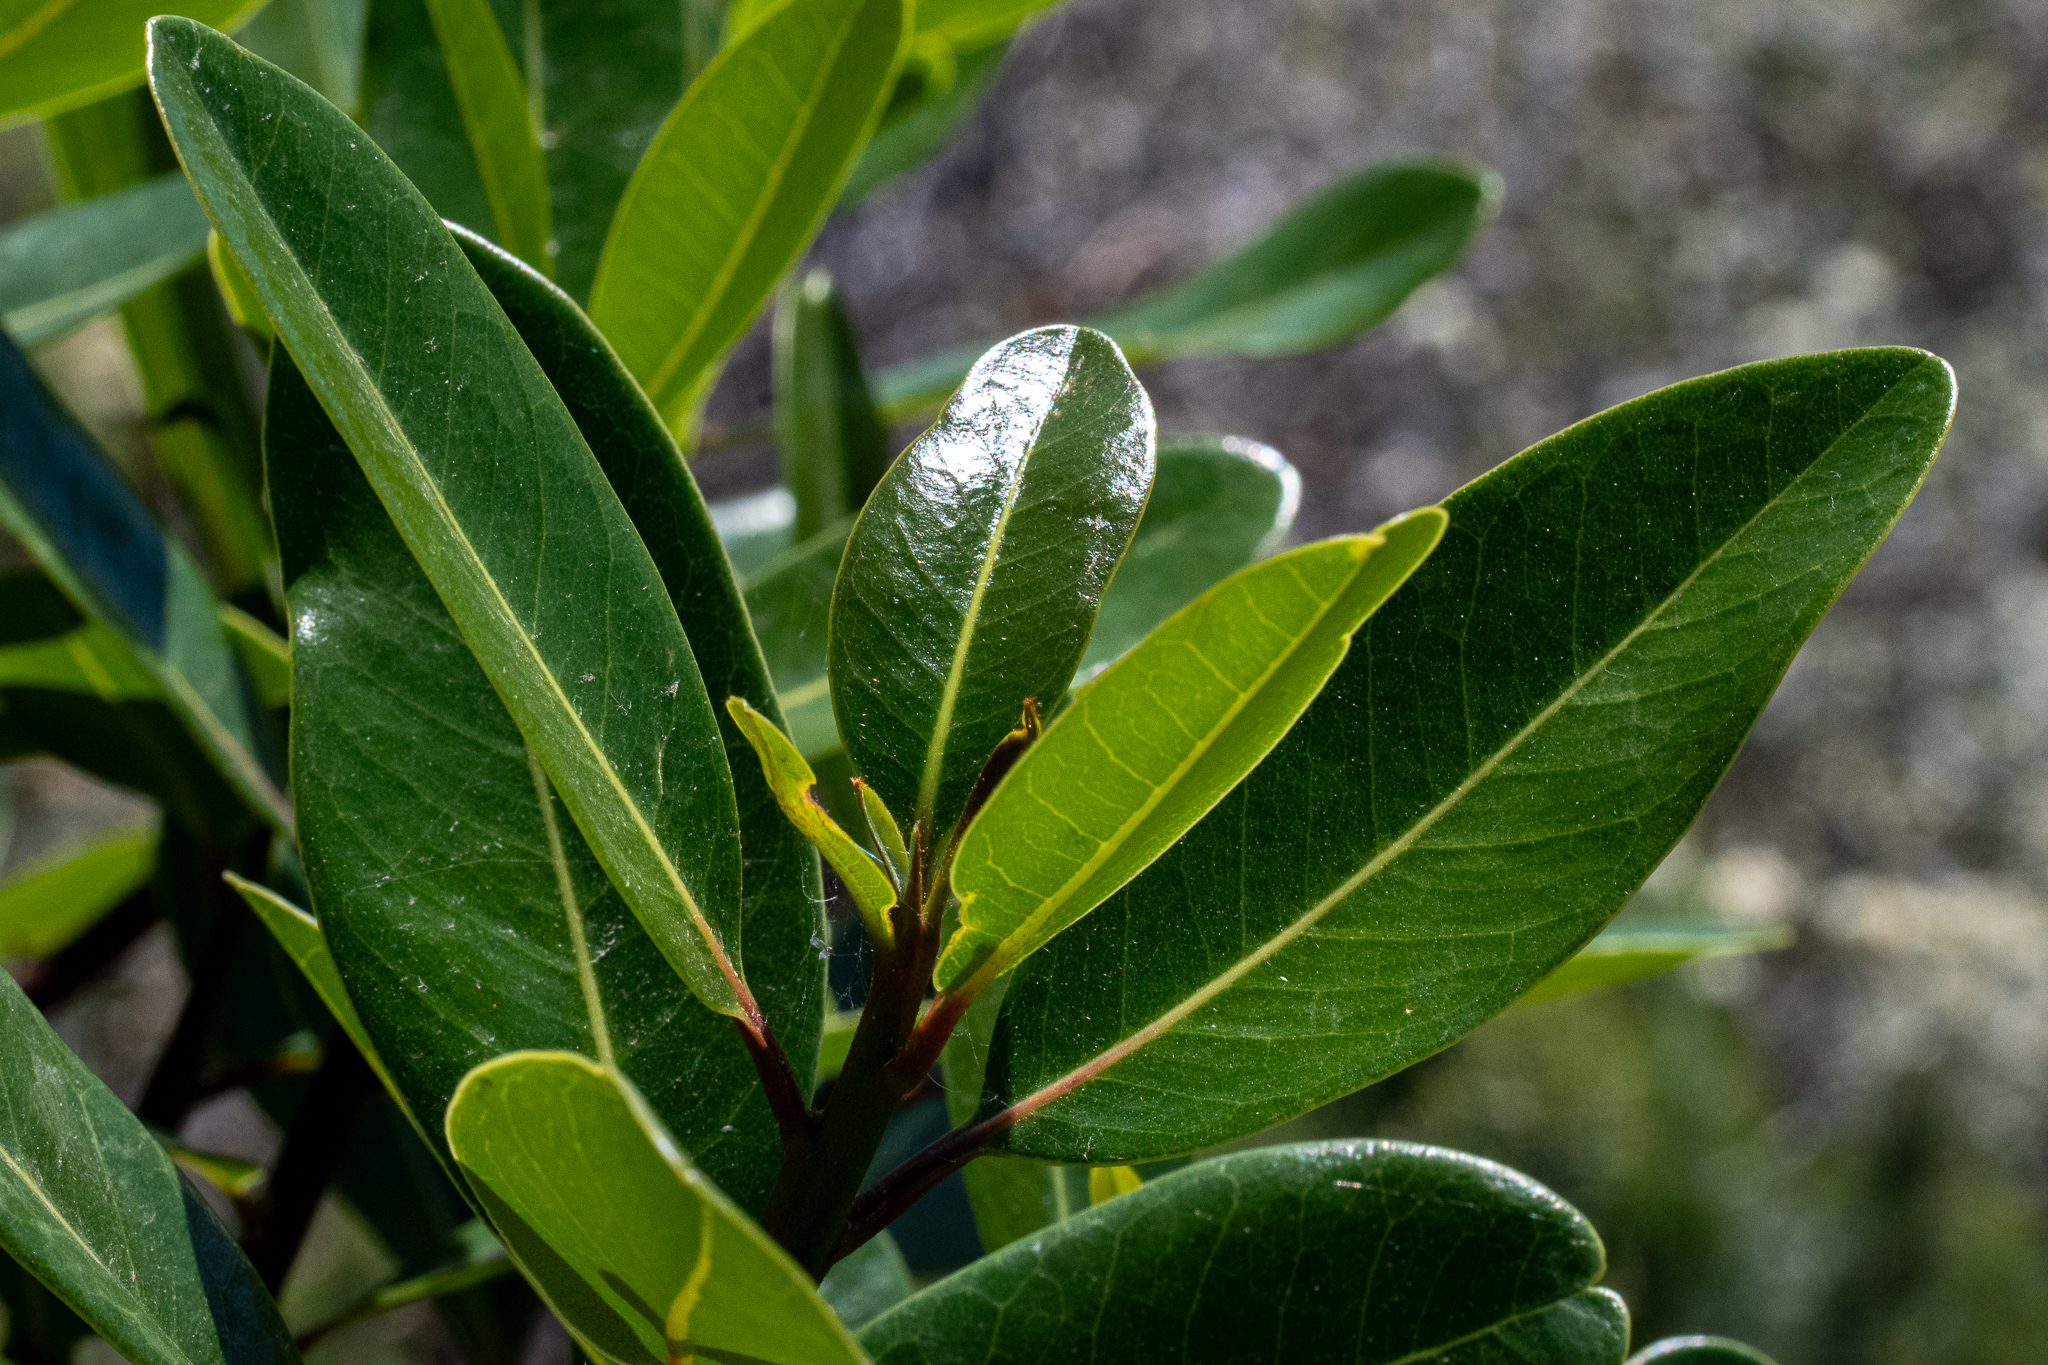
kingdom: Plantae
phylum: Tracheophyta
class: Magnoliopsida
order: Ericales
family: Sapotaceae
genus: Sideroxylon
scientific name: Sideroxylon inerme
